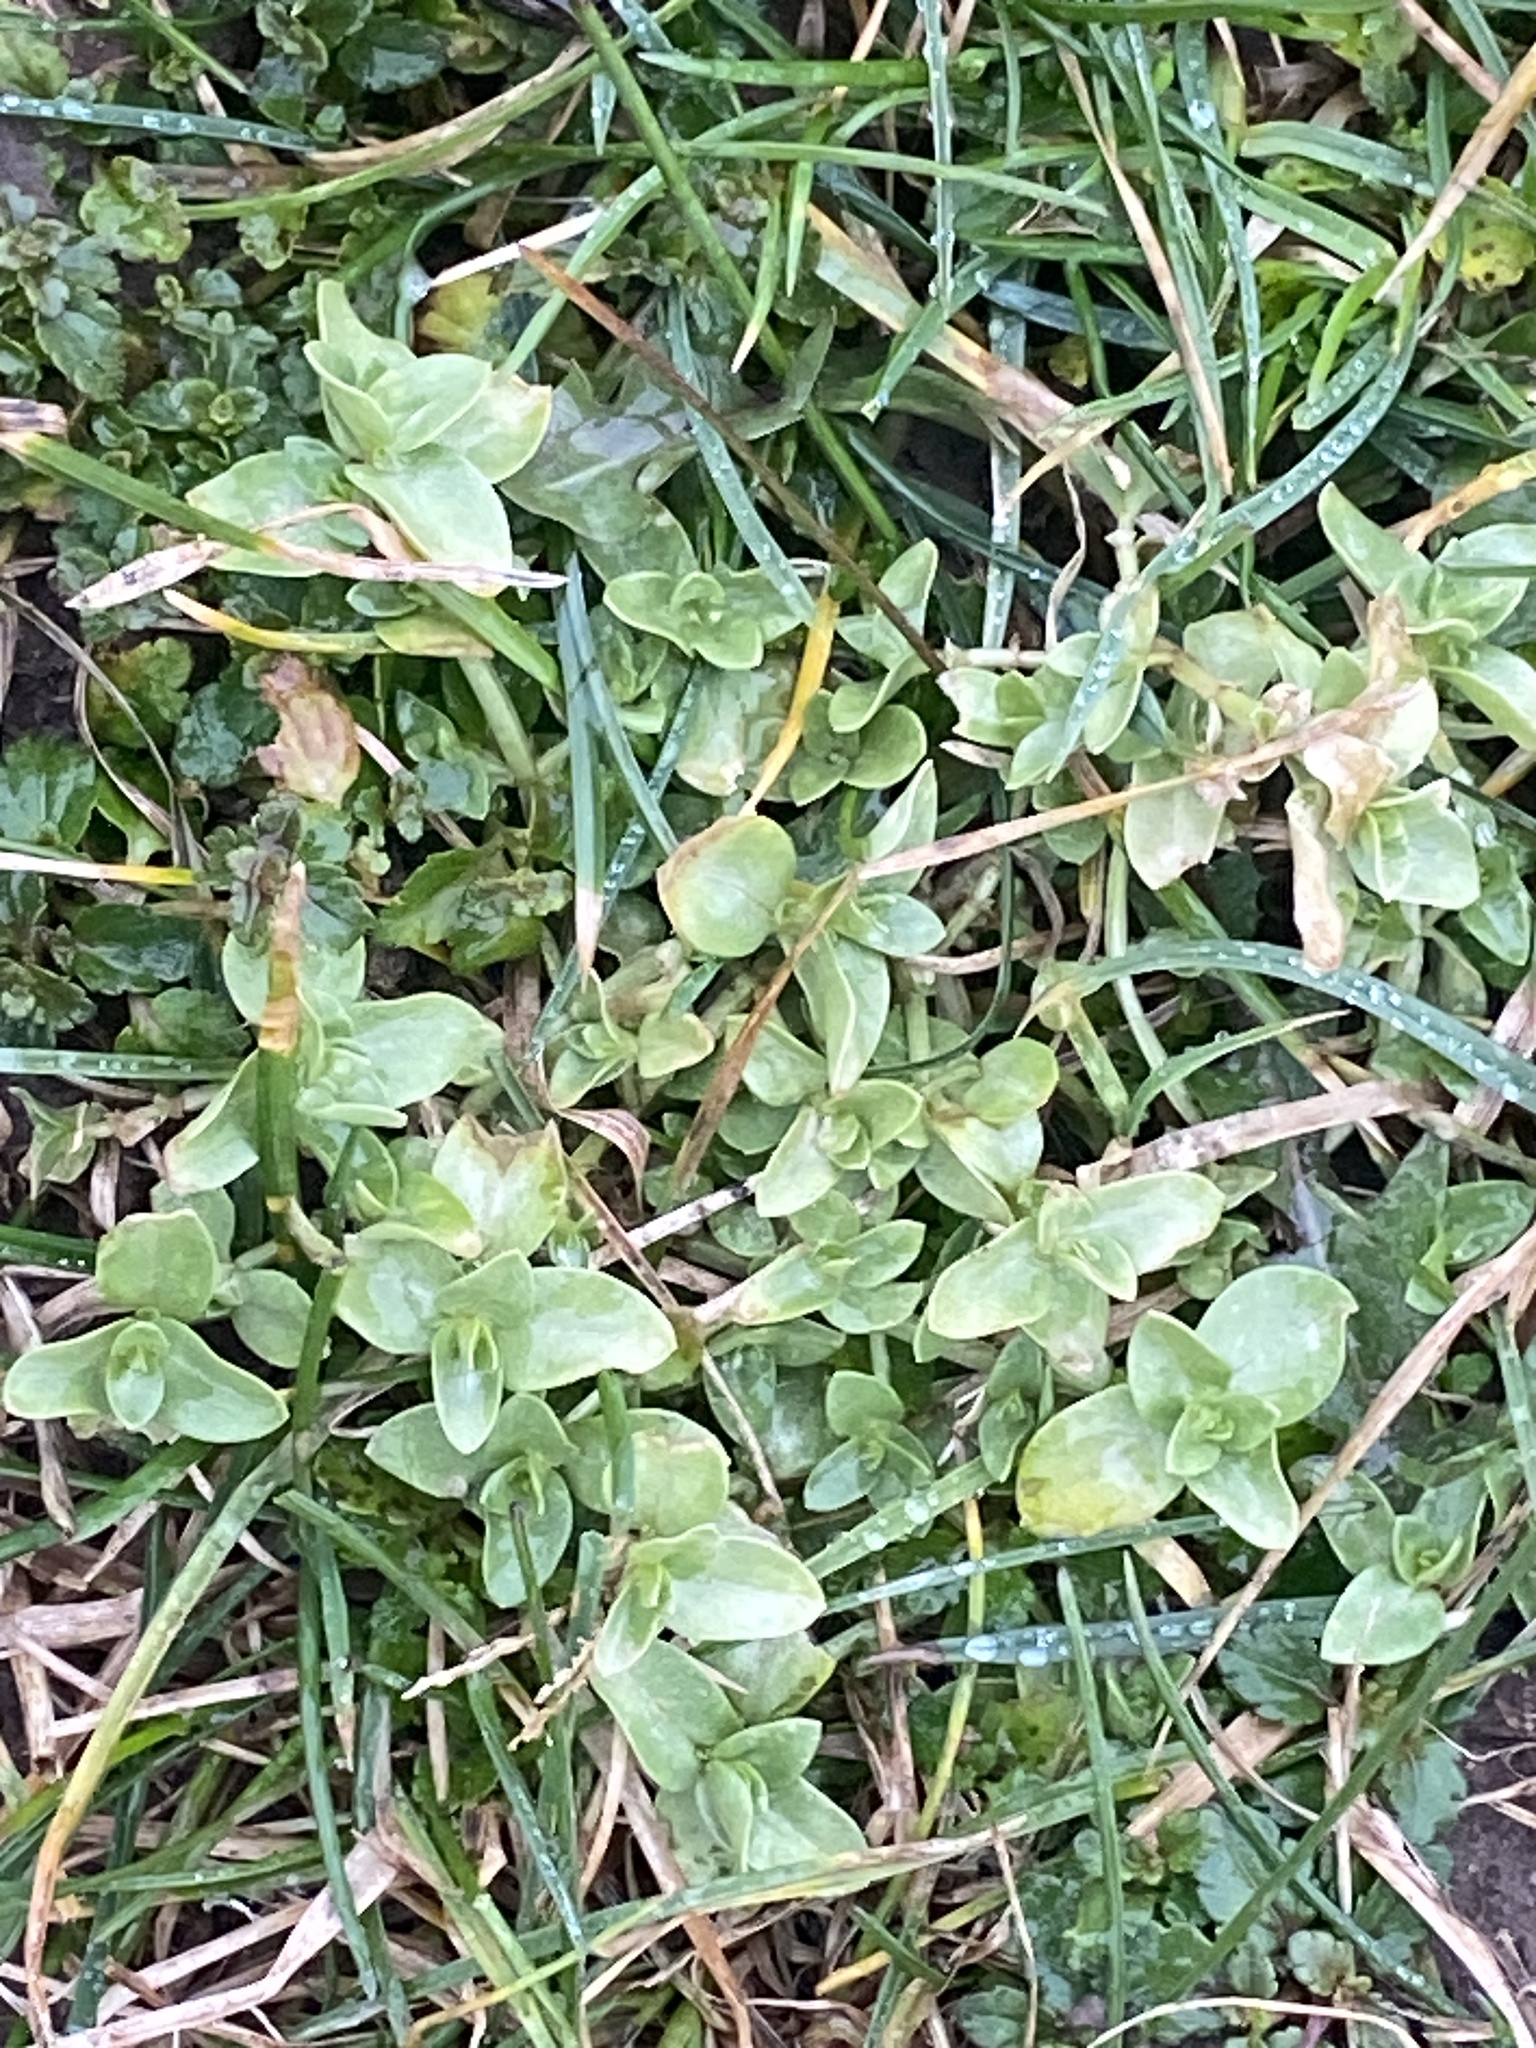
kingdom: Plantae
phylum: Tracheophyta
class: Magnoliopsida
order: Ericales
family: Primulaceae
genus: Lysimachia
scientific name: Lysimachia arvensis
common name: Scarlet pimpernel
